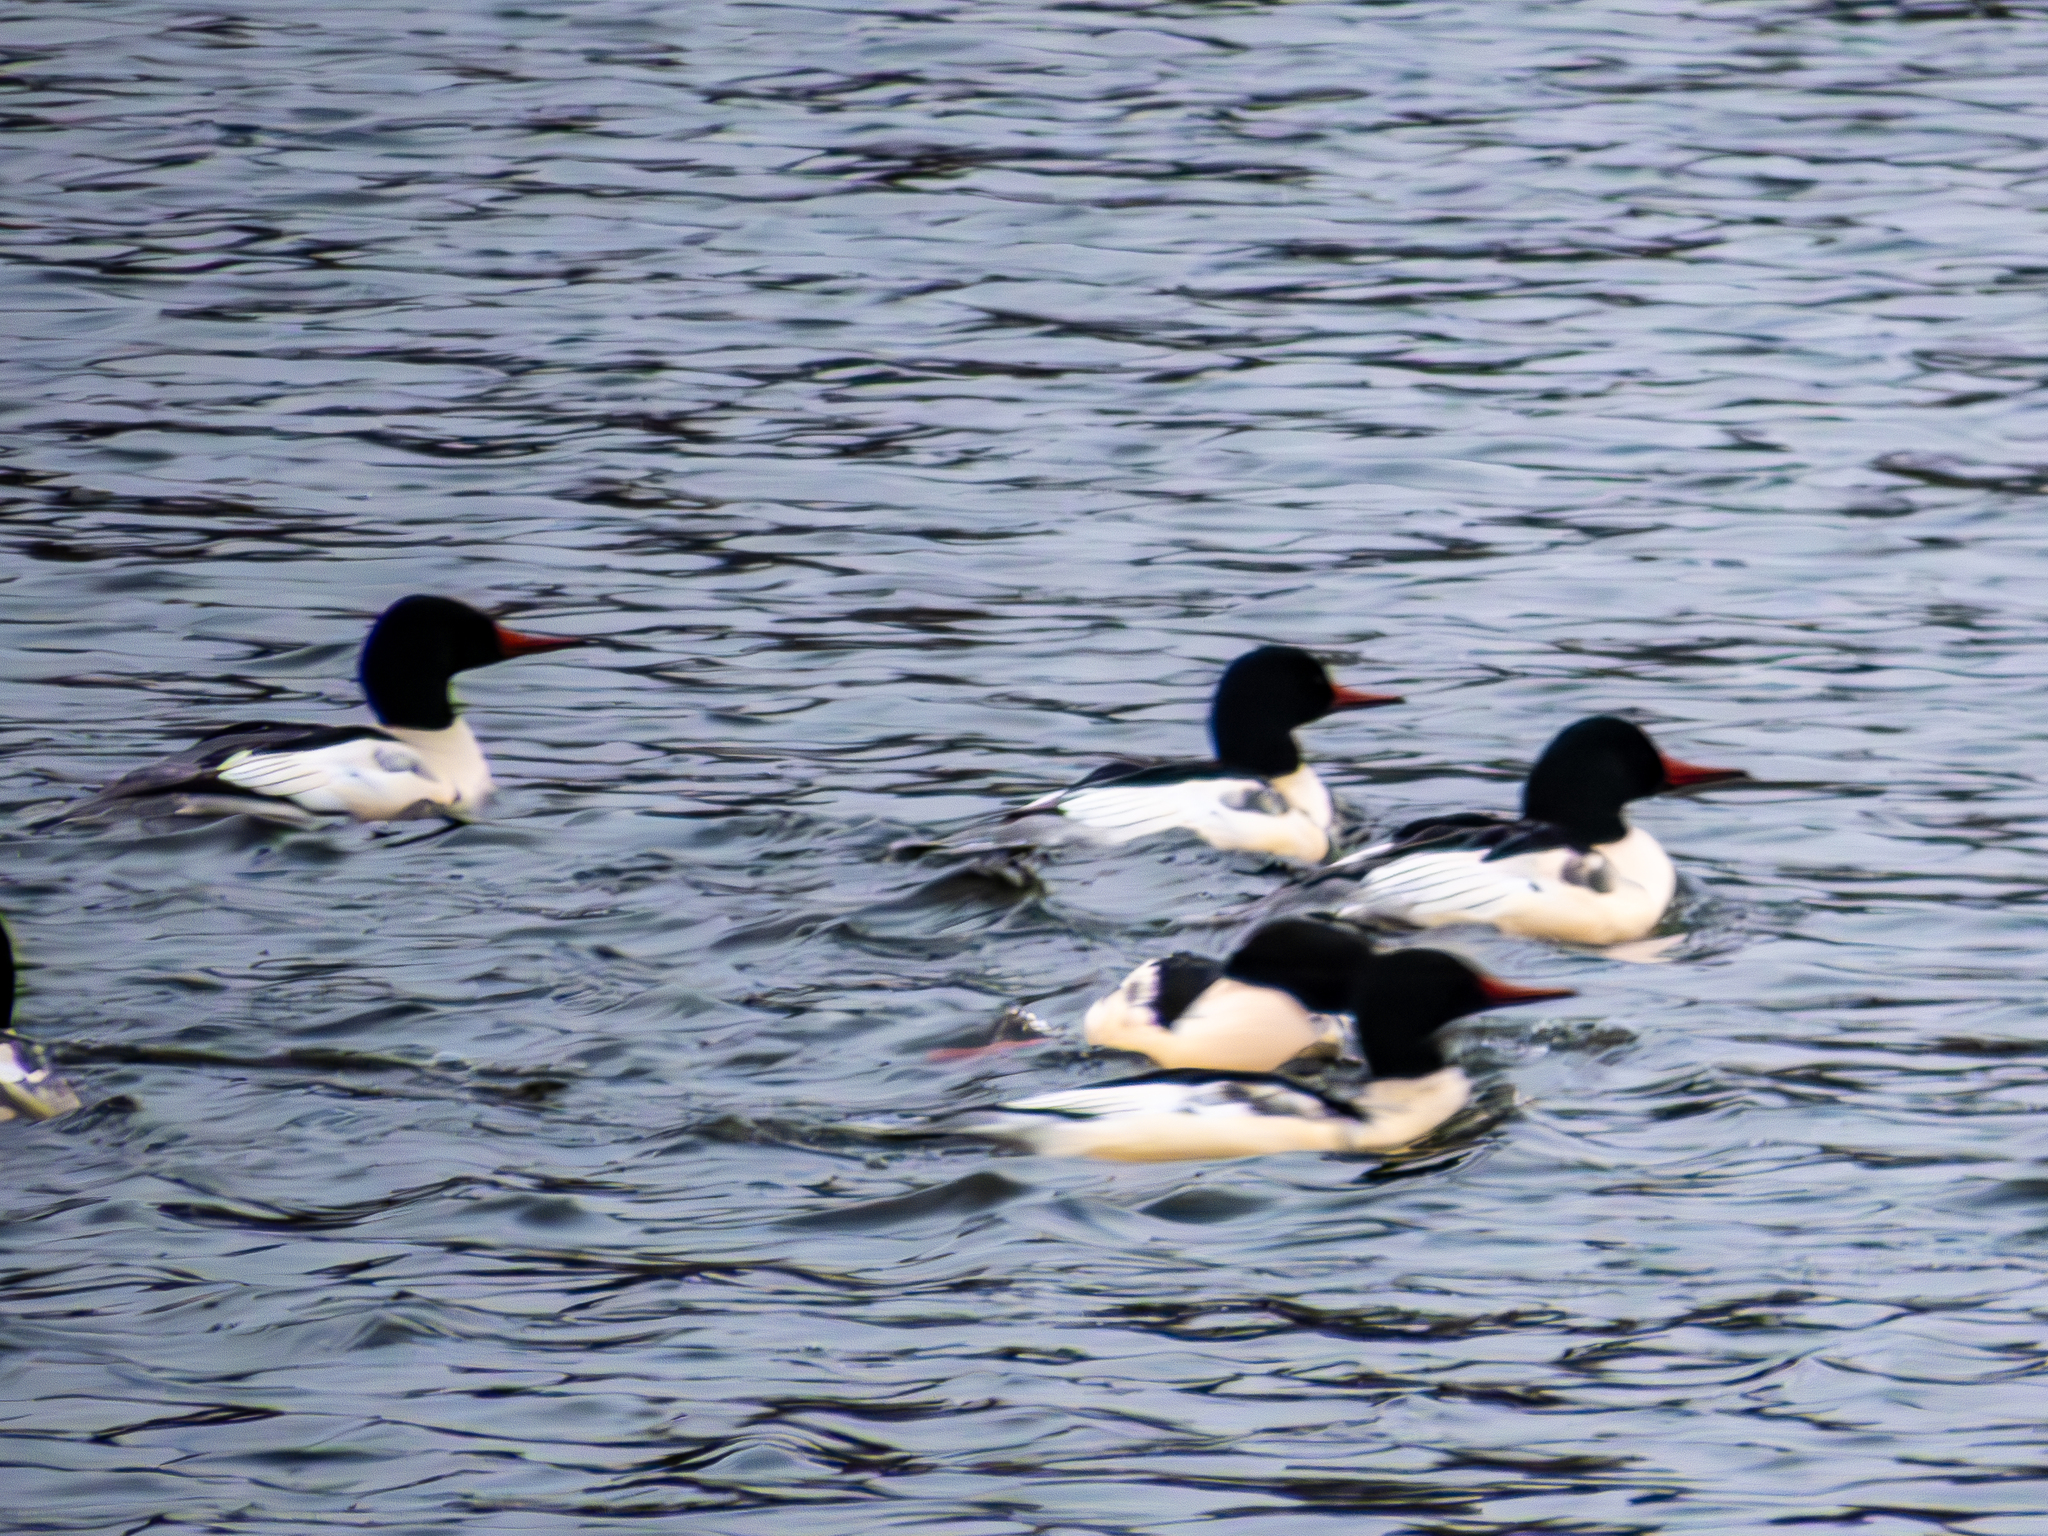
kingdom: Animalia
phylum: Chordata
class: Aves
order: Anseriformes
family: Anatidae
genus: Mergus
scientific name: Mergus merganser
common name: Common merganser
